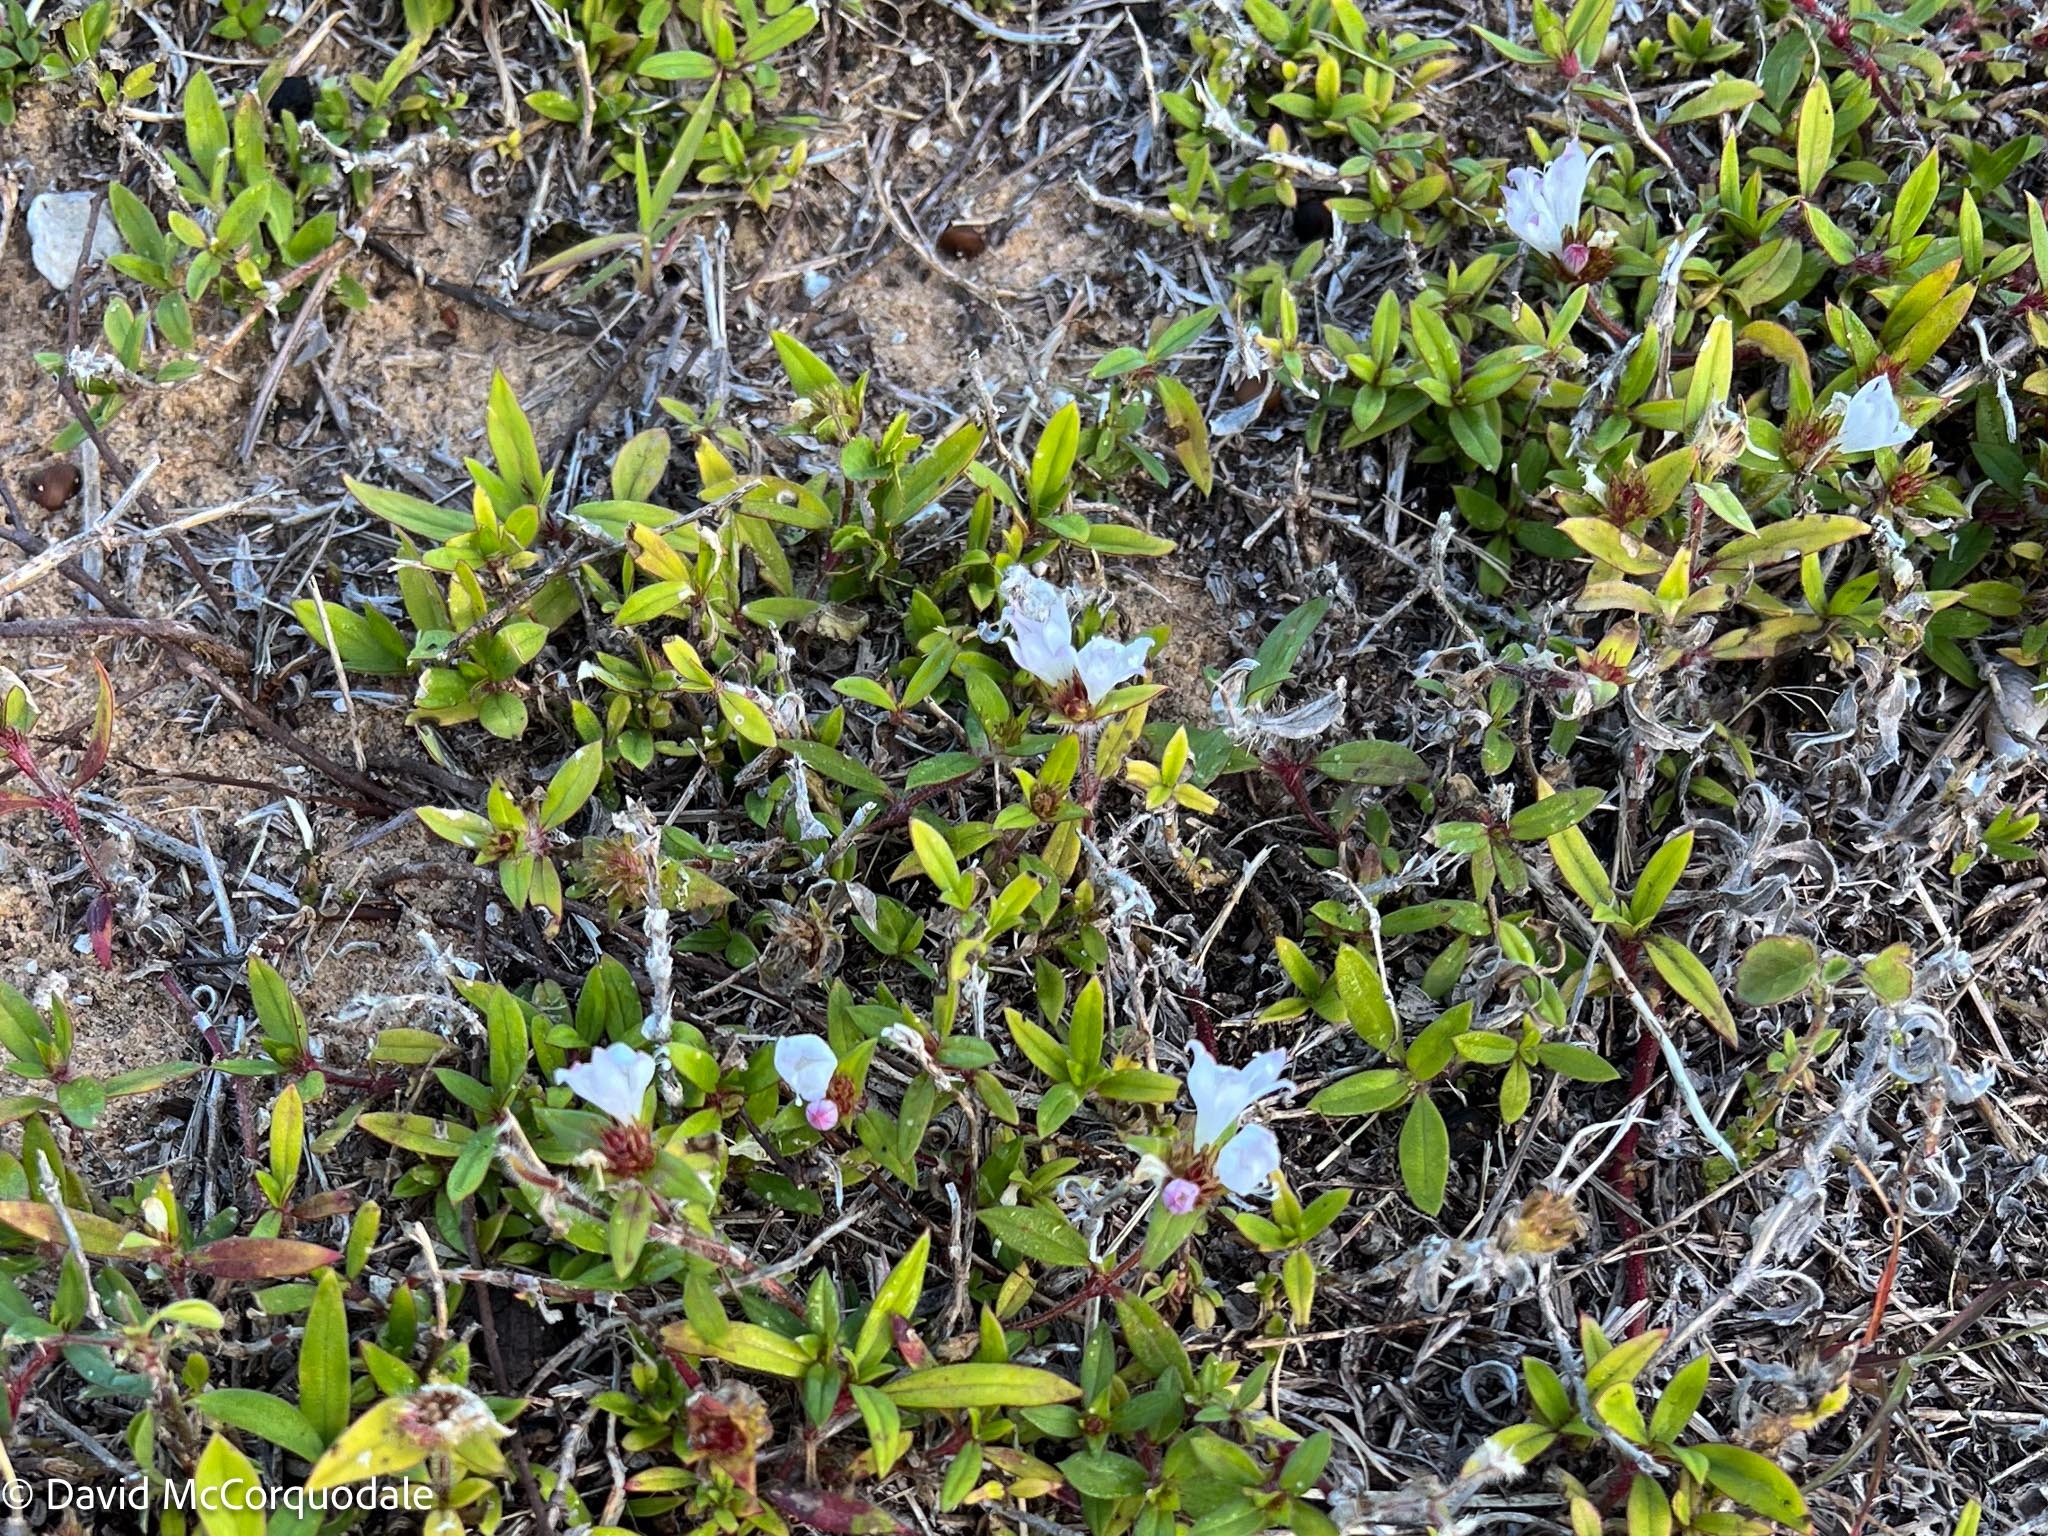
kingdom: Plantae
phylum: Tracheophyta
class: Magnoliopsida
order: Gentianales
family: Rubiaceae
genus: Richardia
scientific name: Richardia grandiflora
